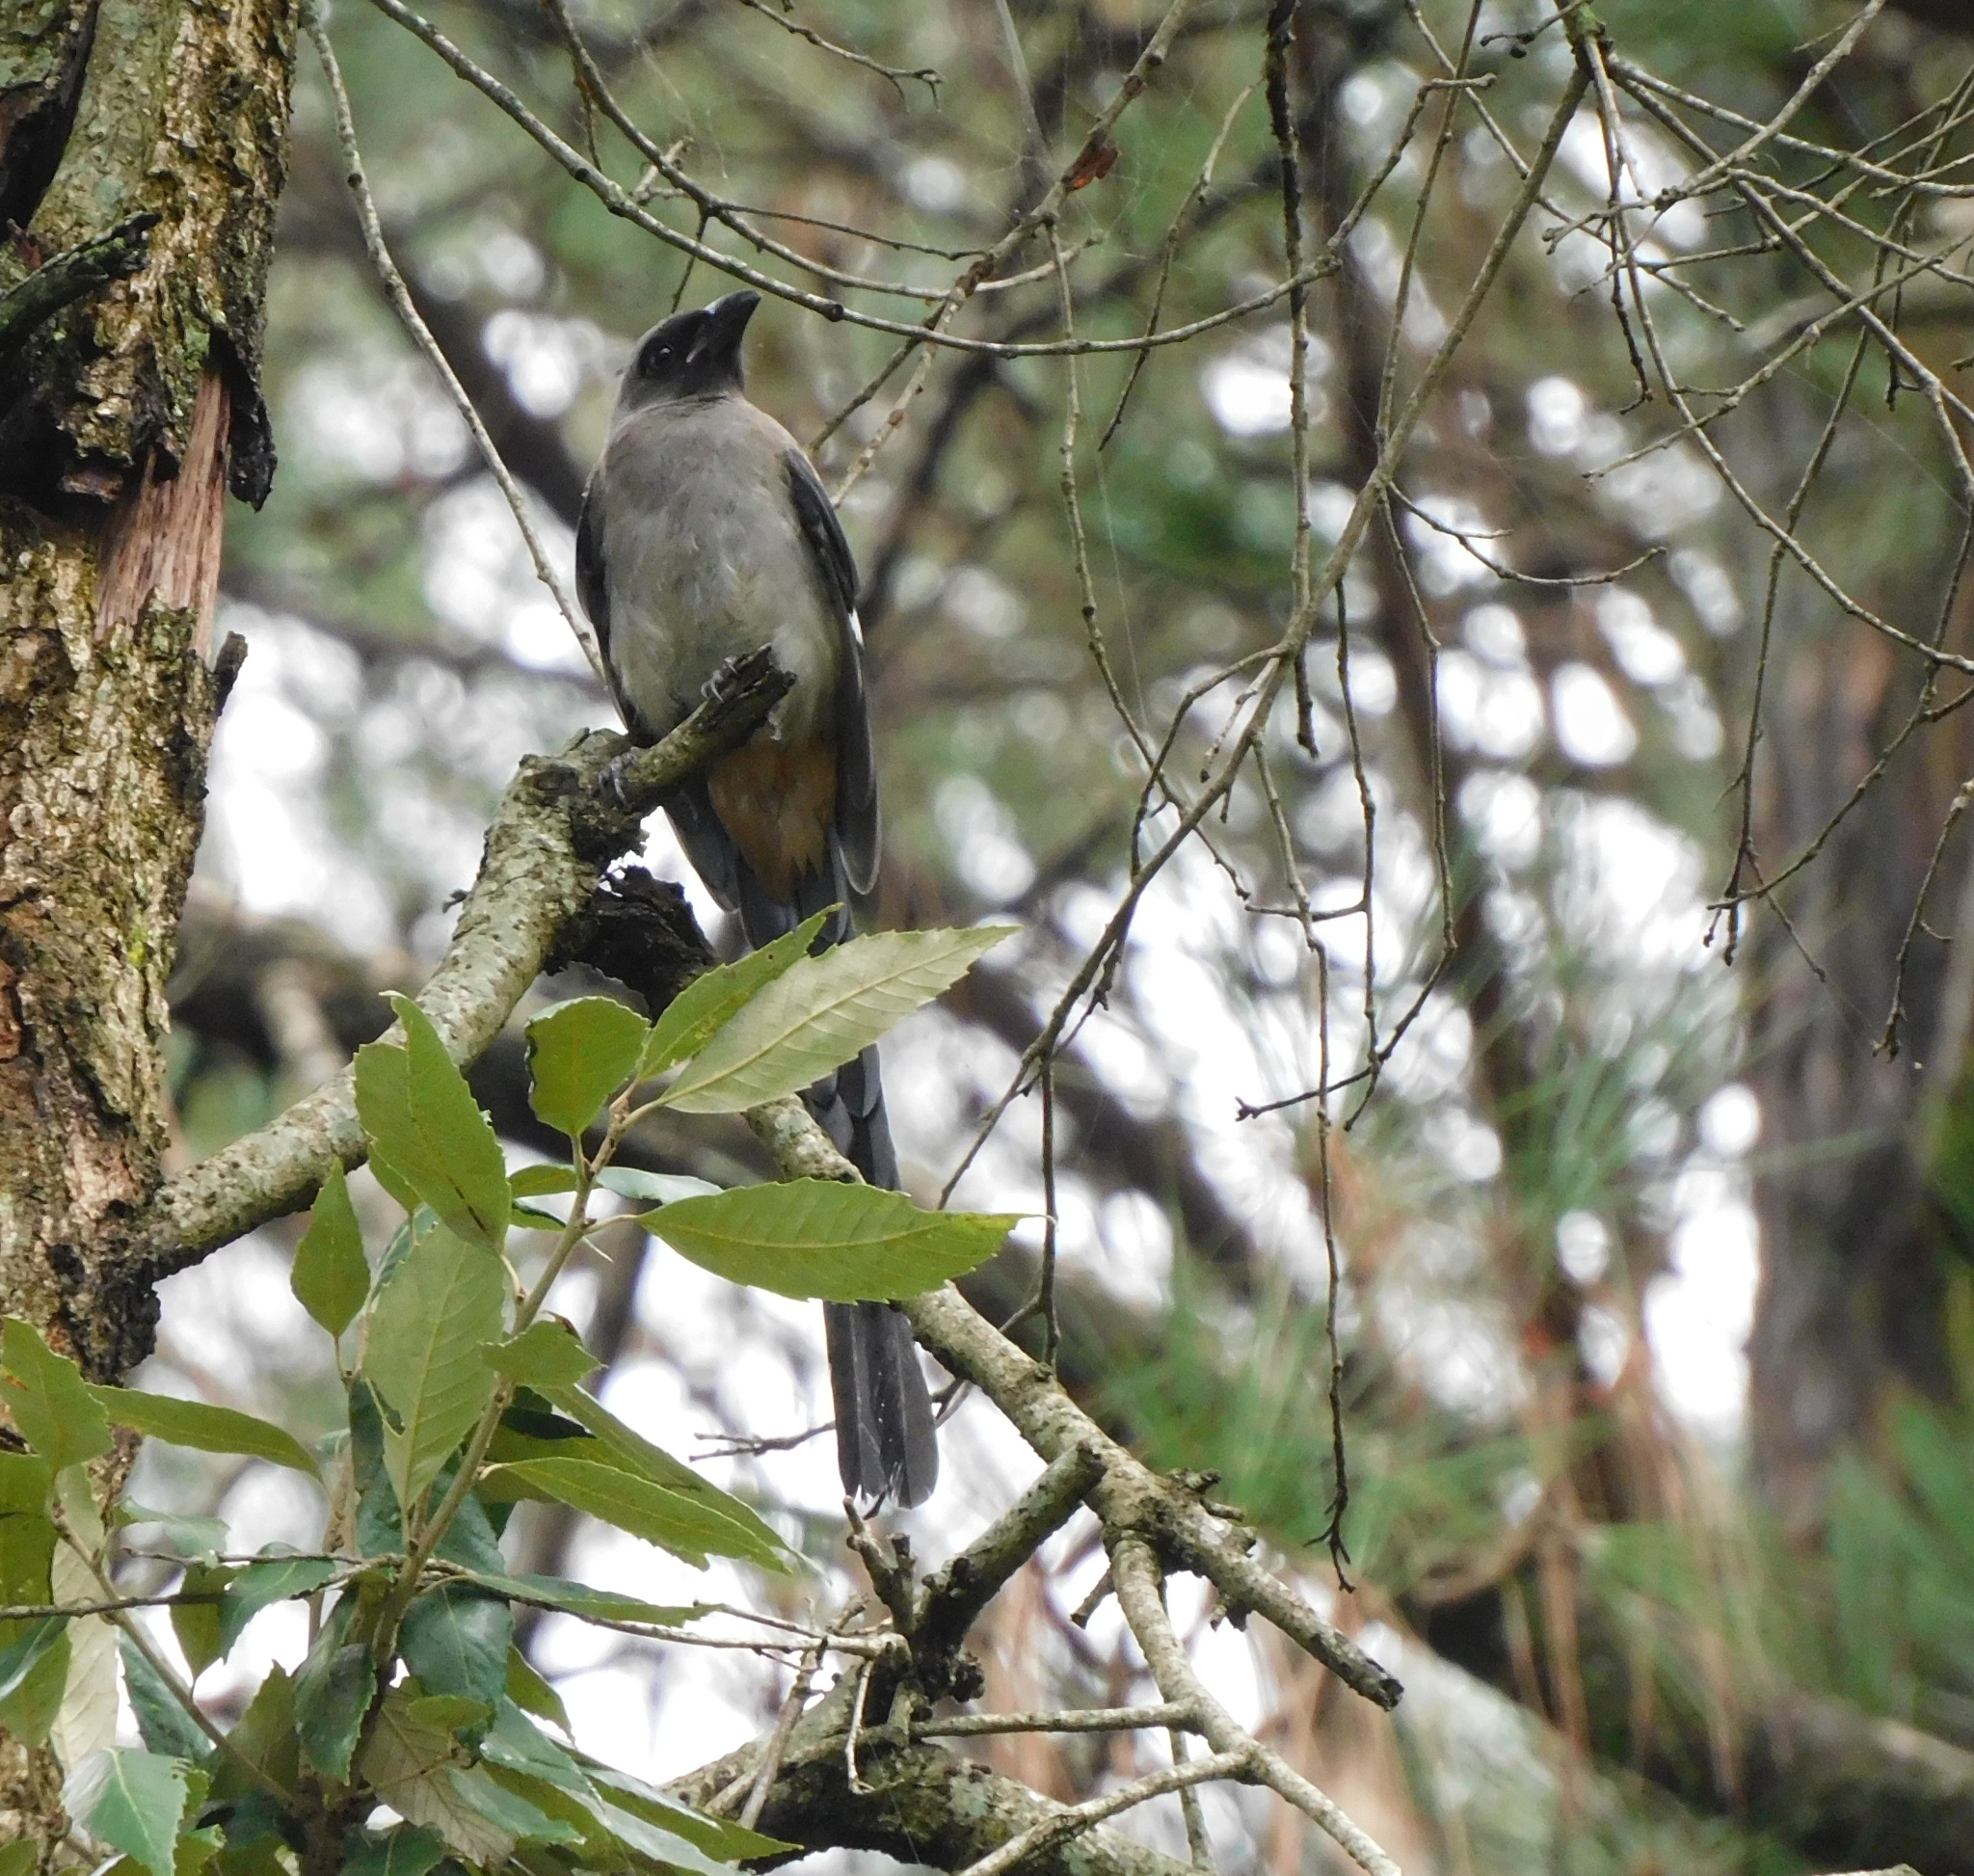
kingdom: Animalia
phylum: Chordata
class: Aves
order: Passeriformes
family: Corvidae
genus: Dendrocitta
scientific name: Dendrocitta formosae
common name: Grey treepie
